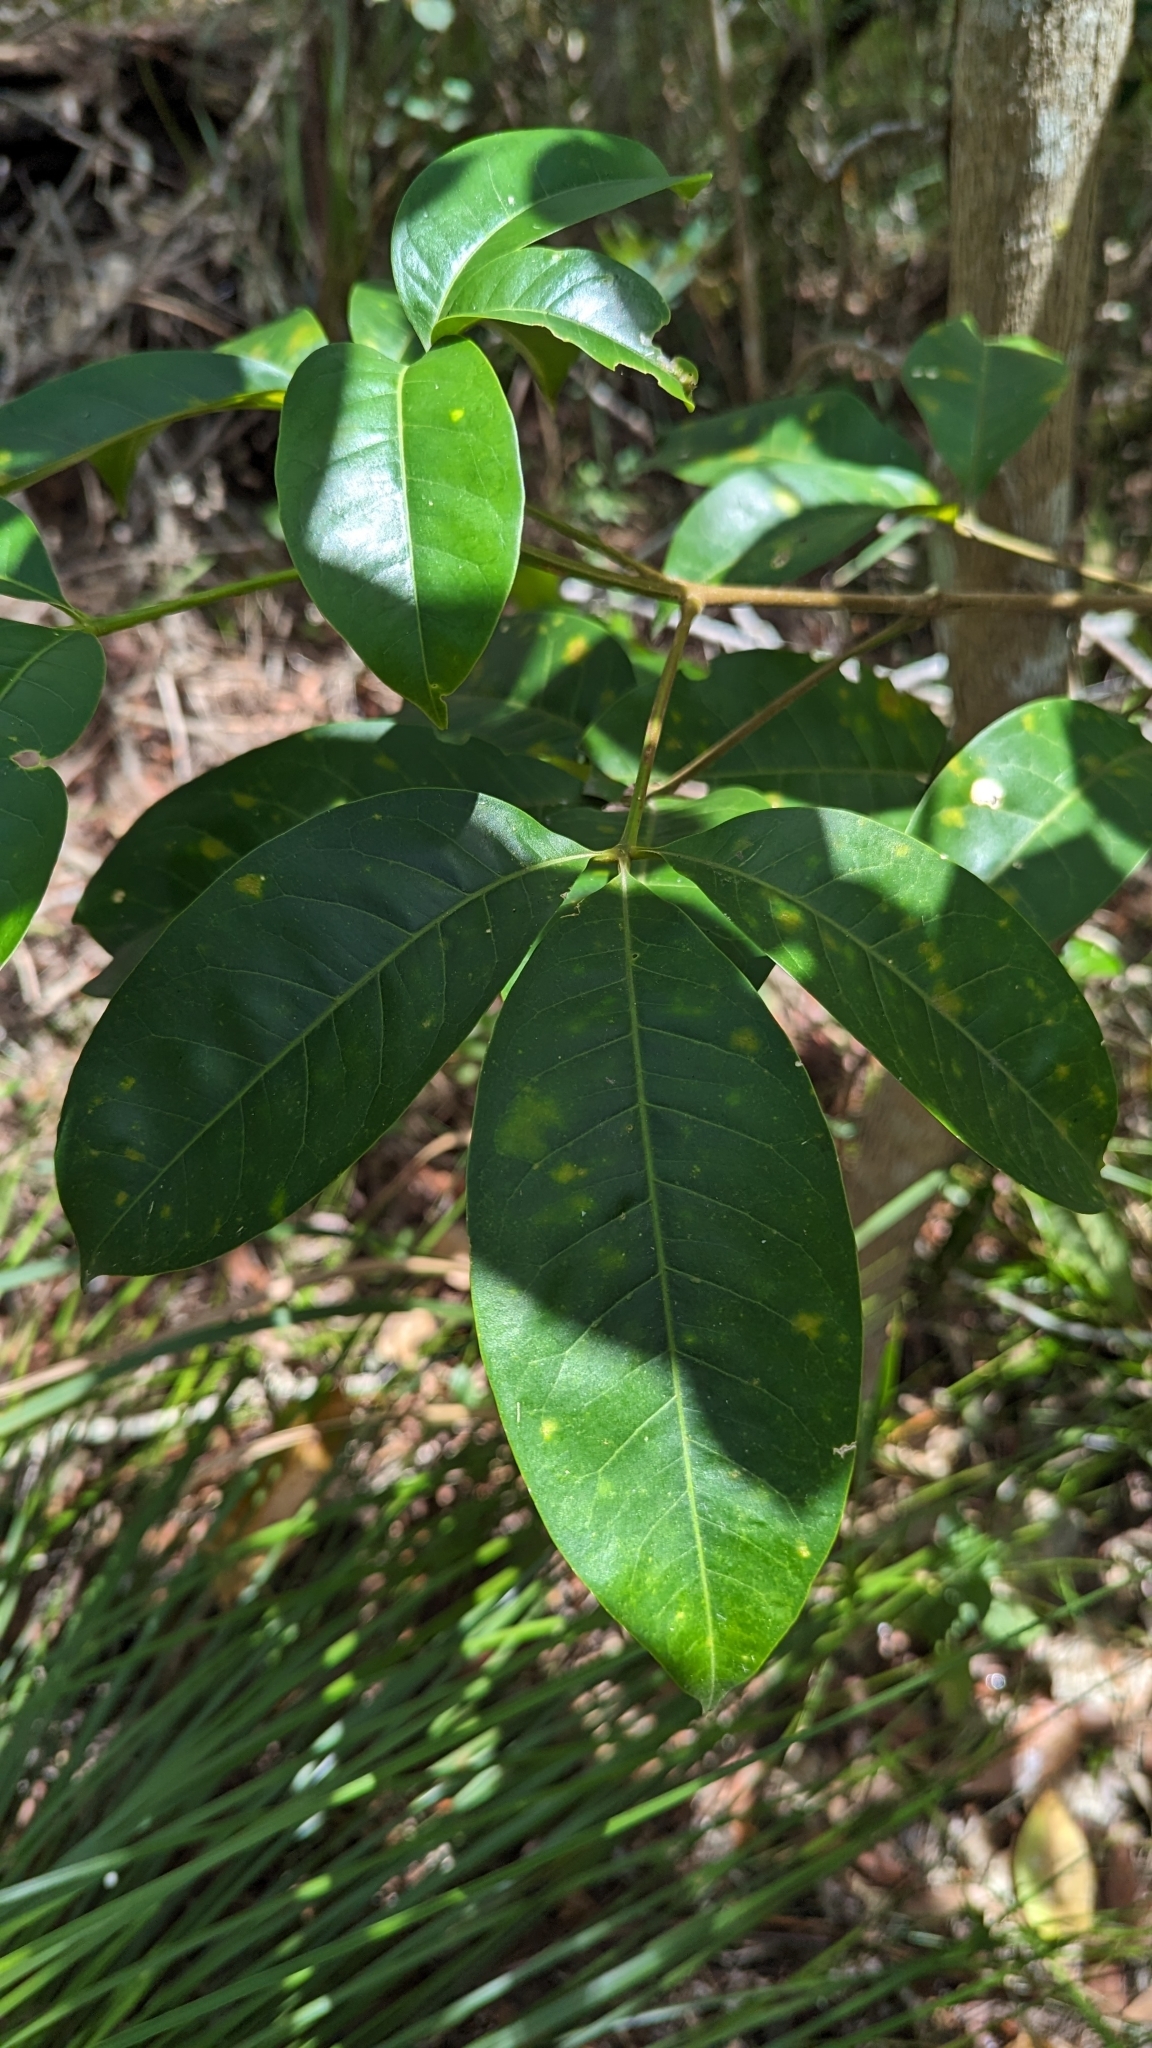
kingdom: Plantae
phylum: Tracheophyta
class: Magnoliopsida
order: Sapindales
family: Rutaceae
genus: Melicope
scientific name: Melicope elleryana
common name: Pink euodia
